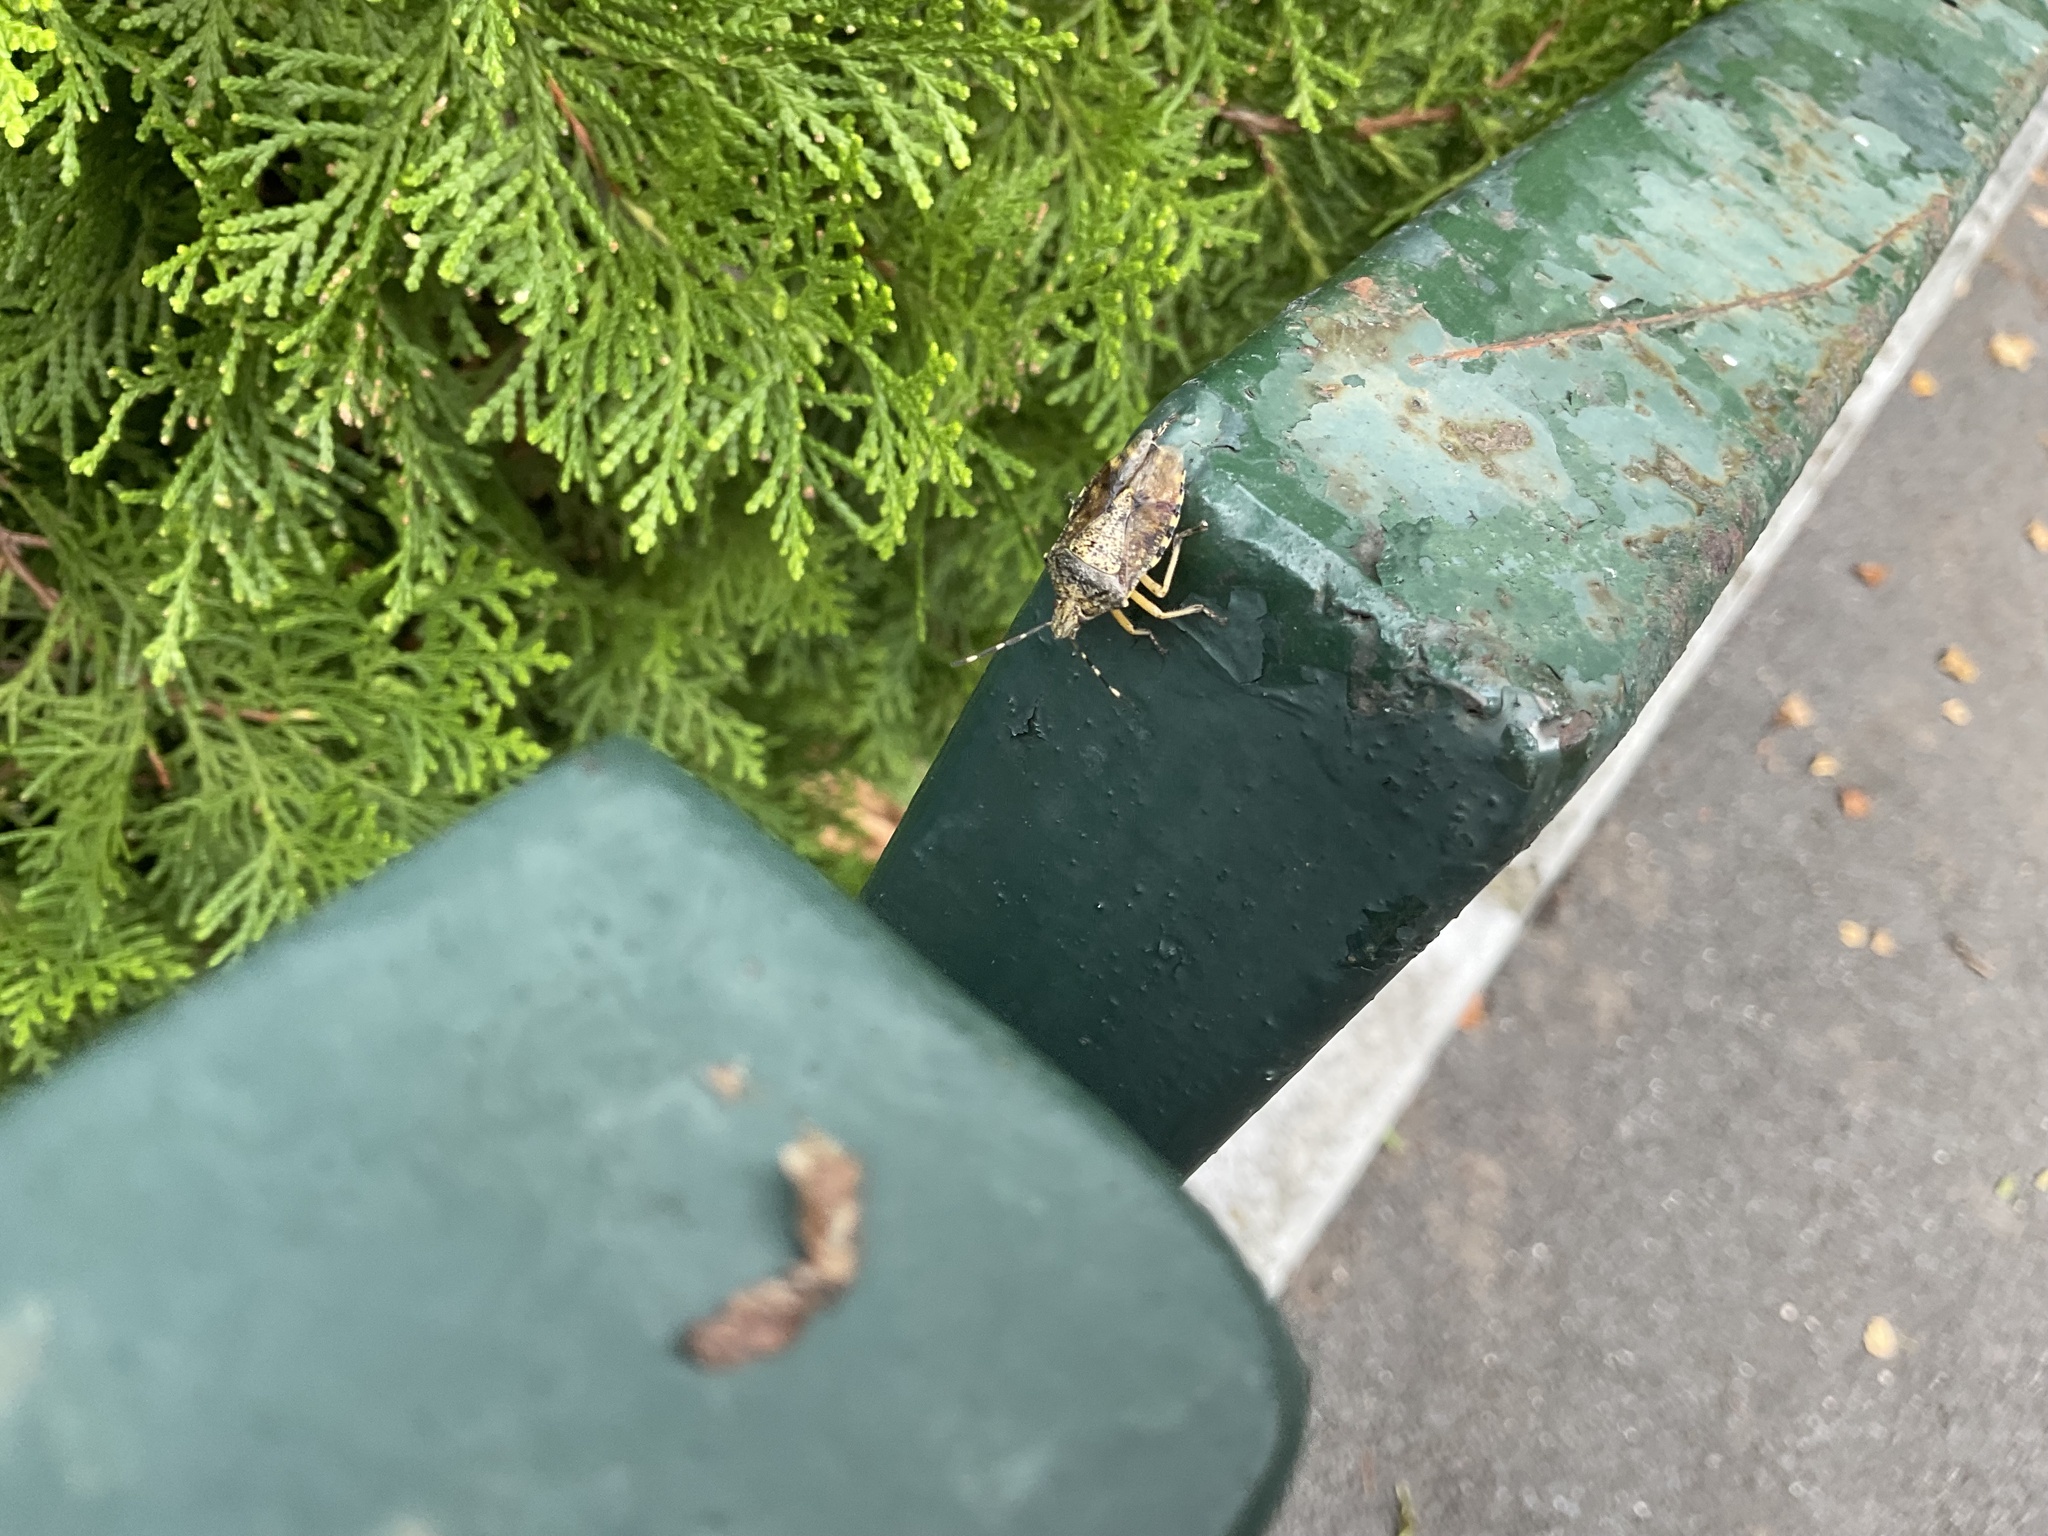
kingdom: Animalia
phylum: Arthropoda
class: Insecta
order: Hemiptera
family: Pentatomidae
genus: Rhaphigaster
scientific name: Rhaphigaster nebulosa
